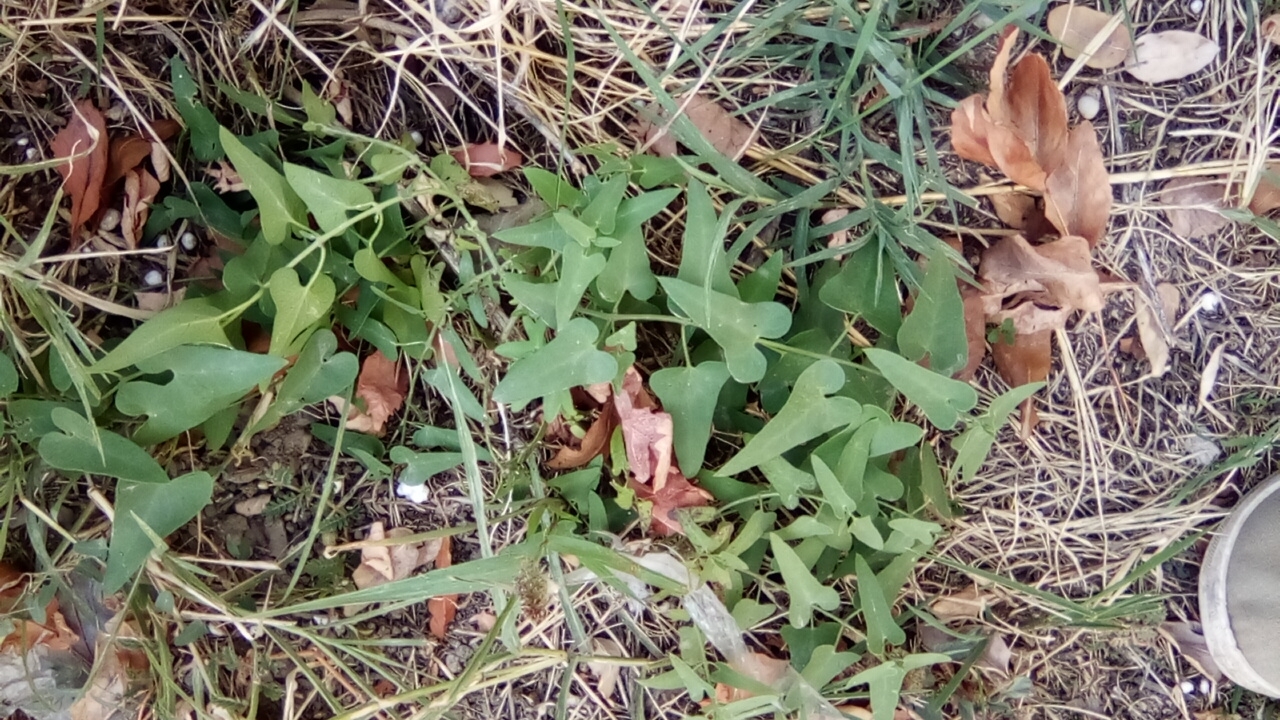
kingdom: Plantae
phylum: Tracheophyta
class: Magnoliopsida
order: Gentianales
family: Apocynaceae
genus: Cynanchum
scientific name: Cynanchum acutum
